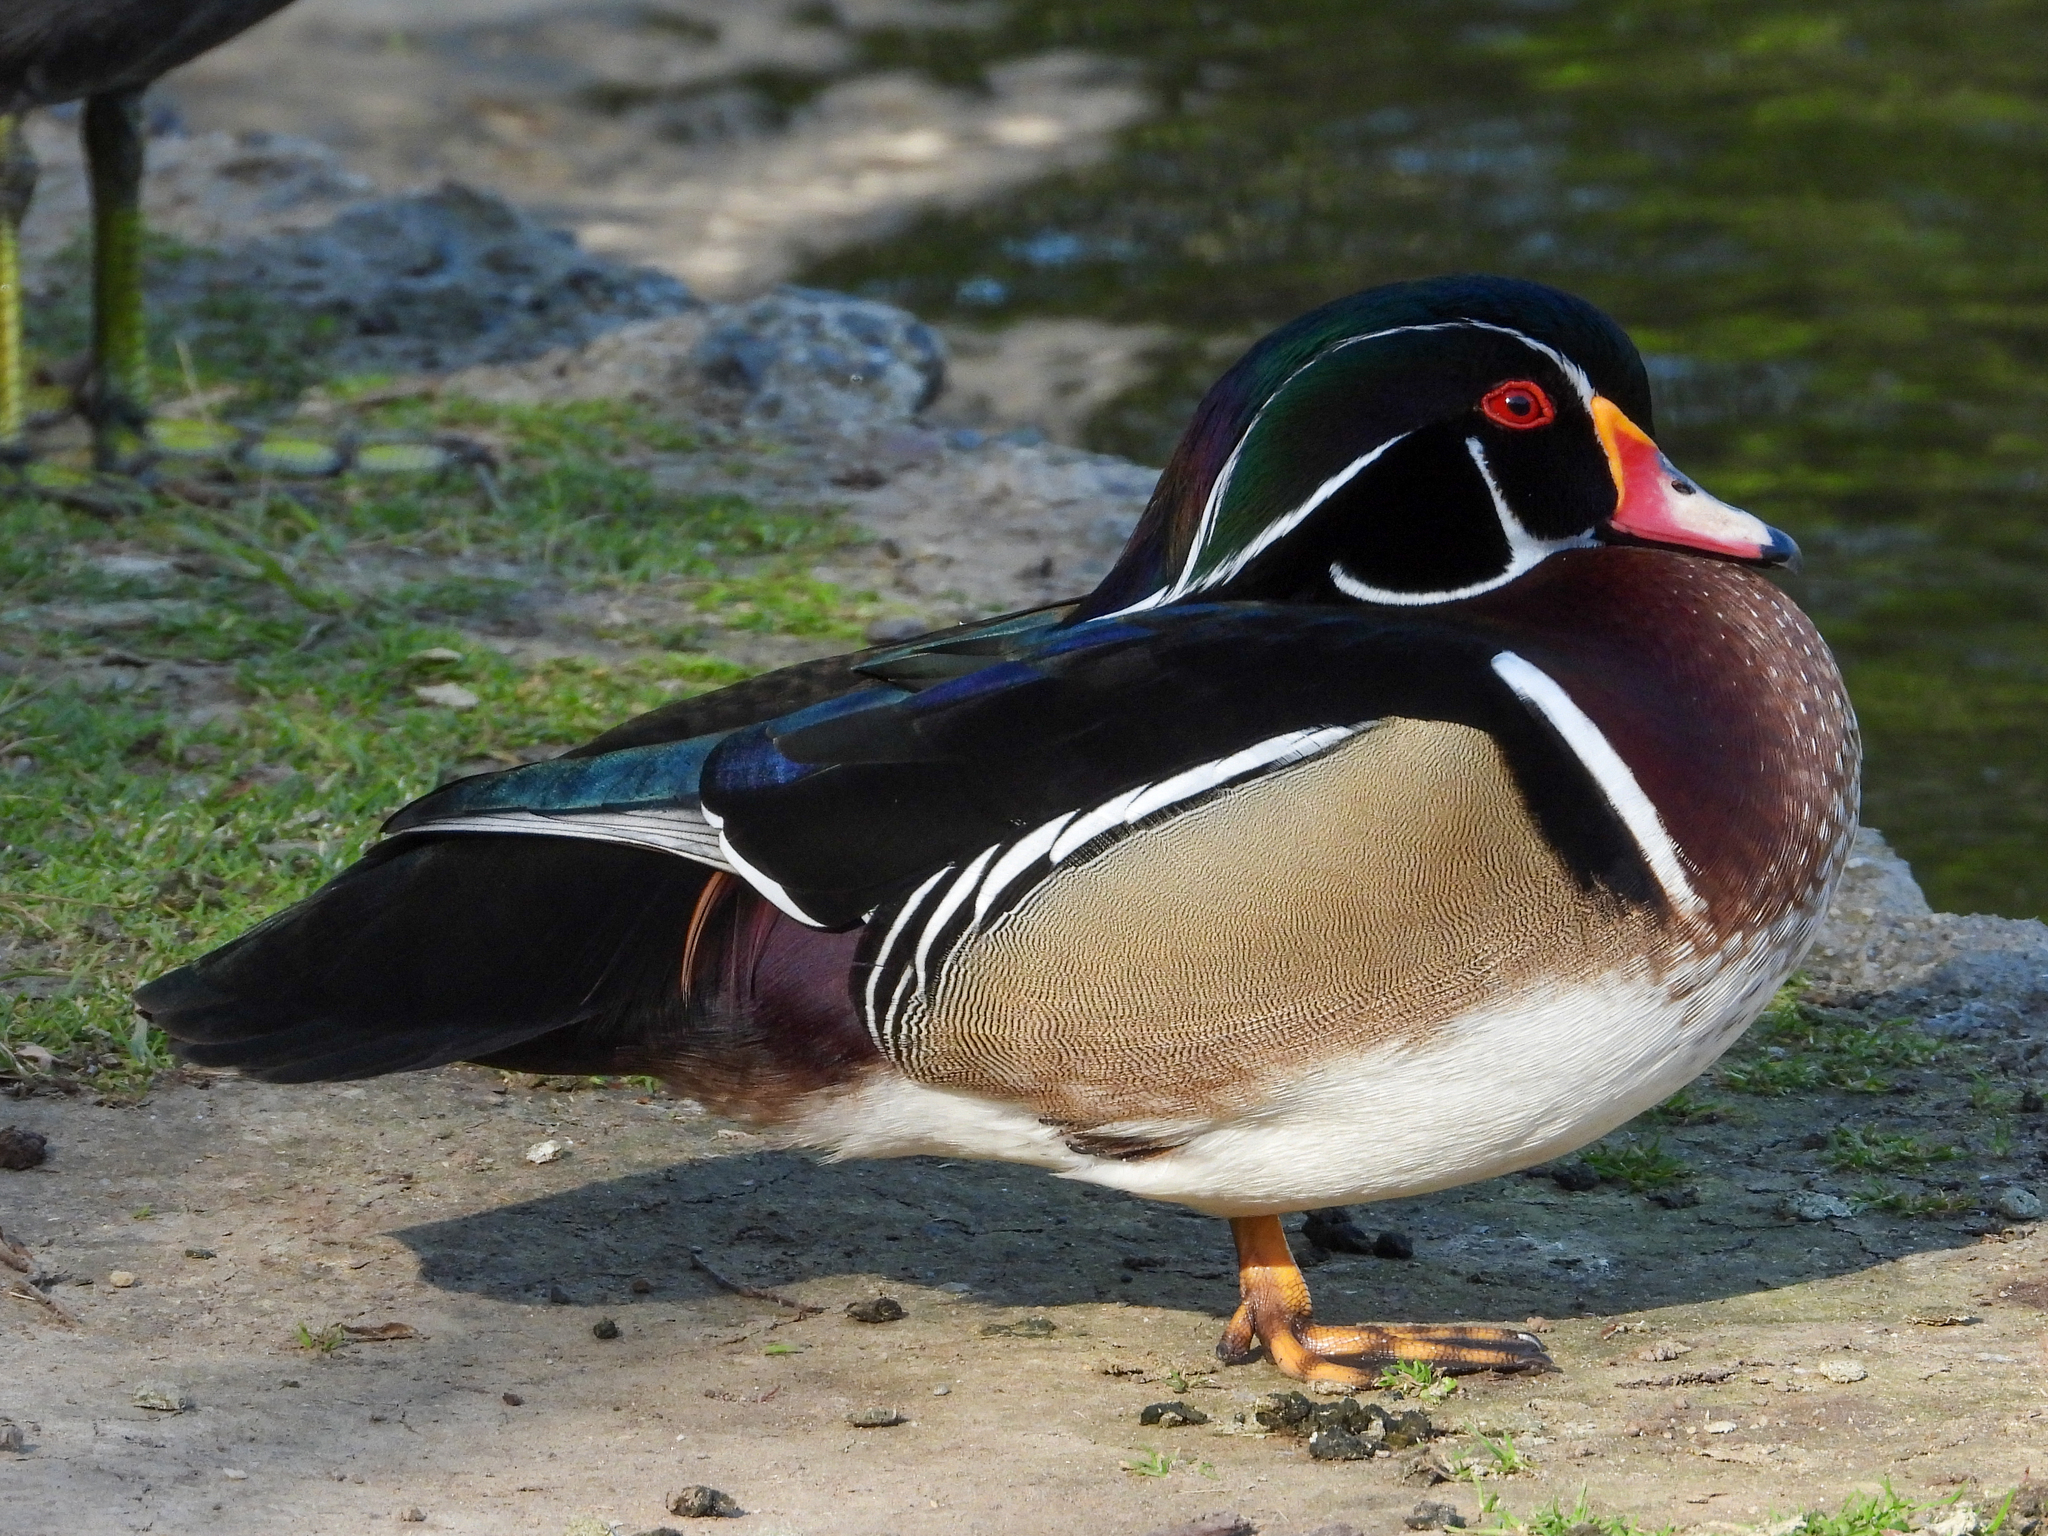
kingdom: Animalia
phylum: Chordata
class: Aves
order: Anseriformes
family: Anatidae
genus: Aix
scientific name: Aix sponsa
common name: Wood duck
